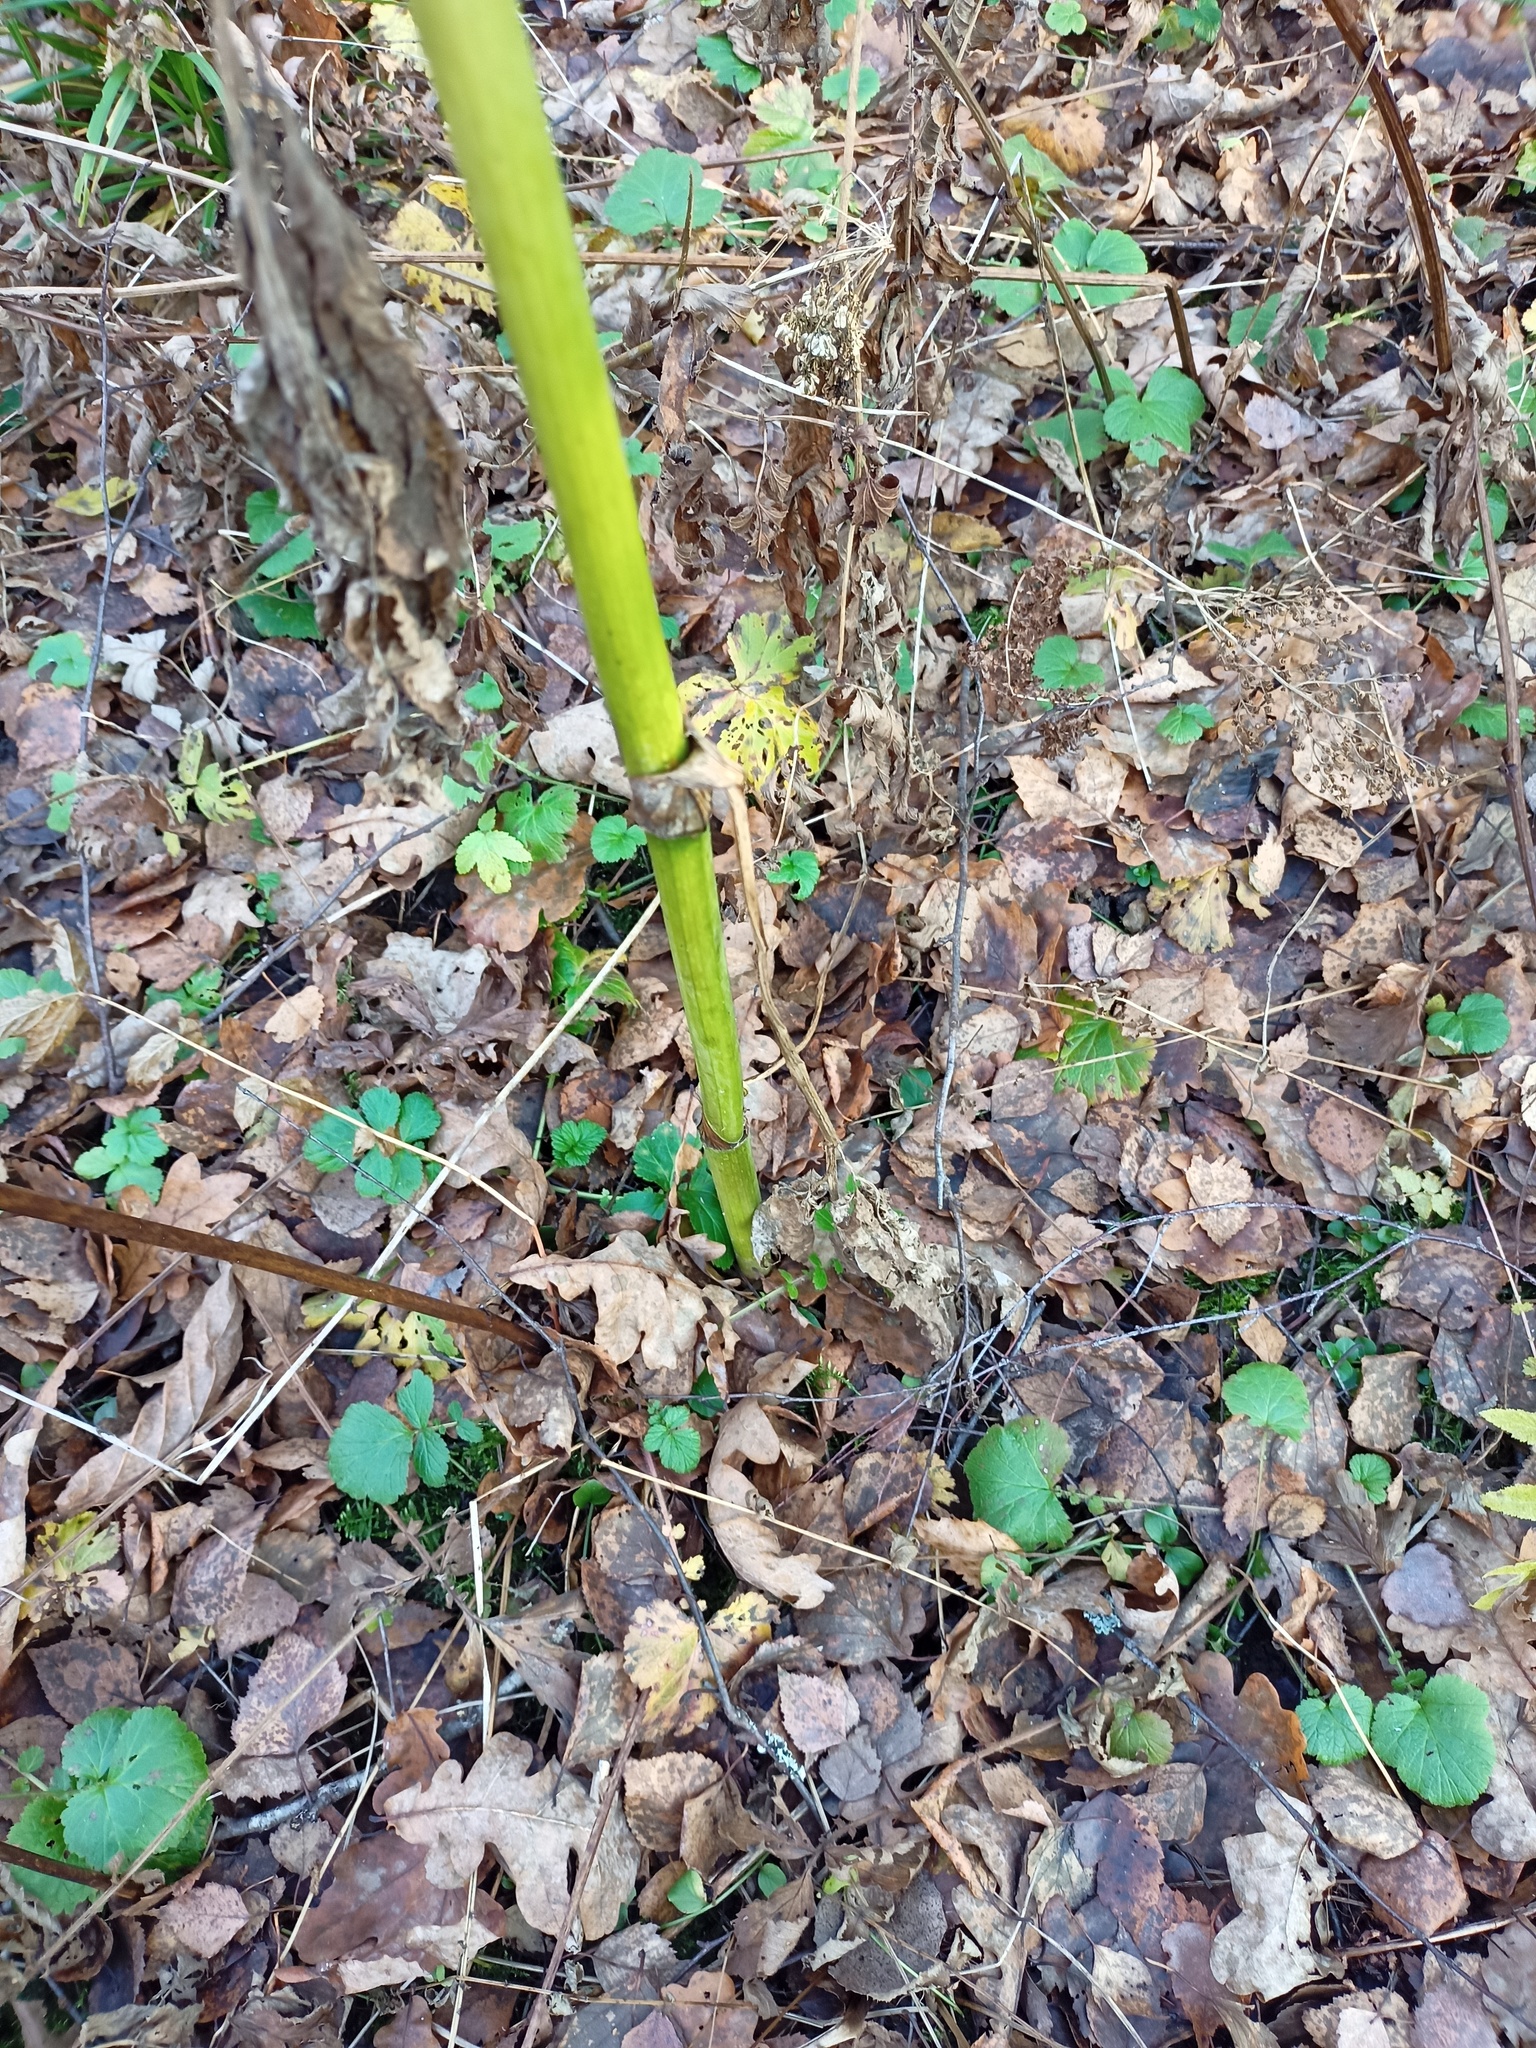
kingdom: Plantae
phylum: Tracheophyta
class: Magnoliopsida
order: Apiales
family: Apiaceae
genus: Angelica
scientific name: Angelica sylvestris
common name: Wild angelica
